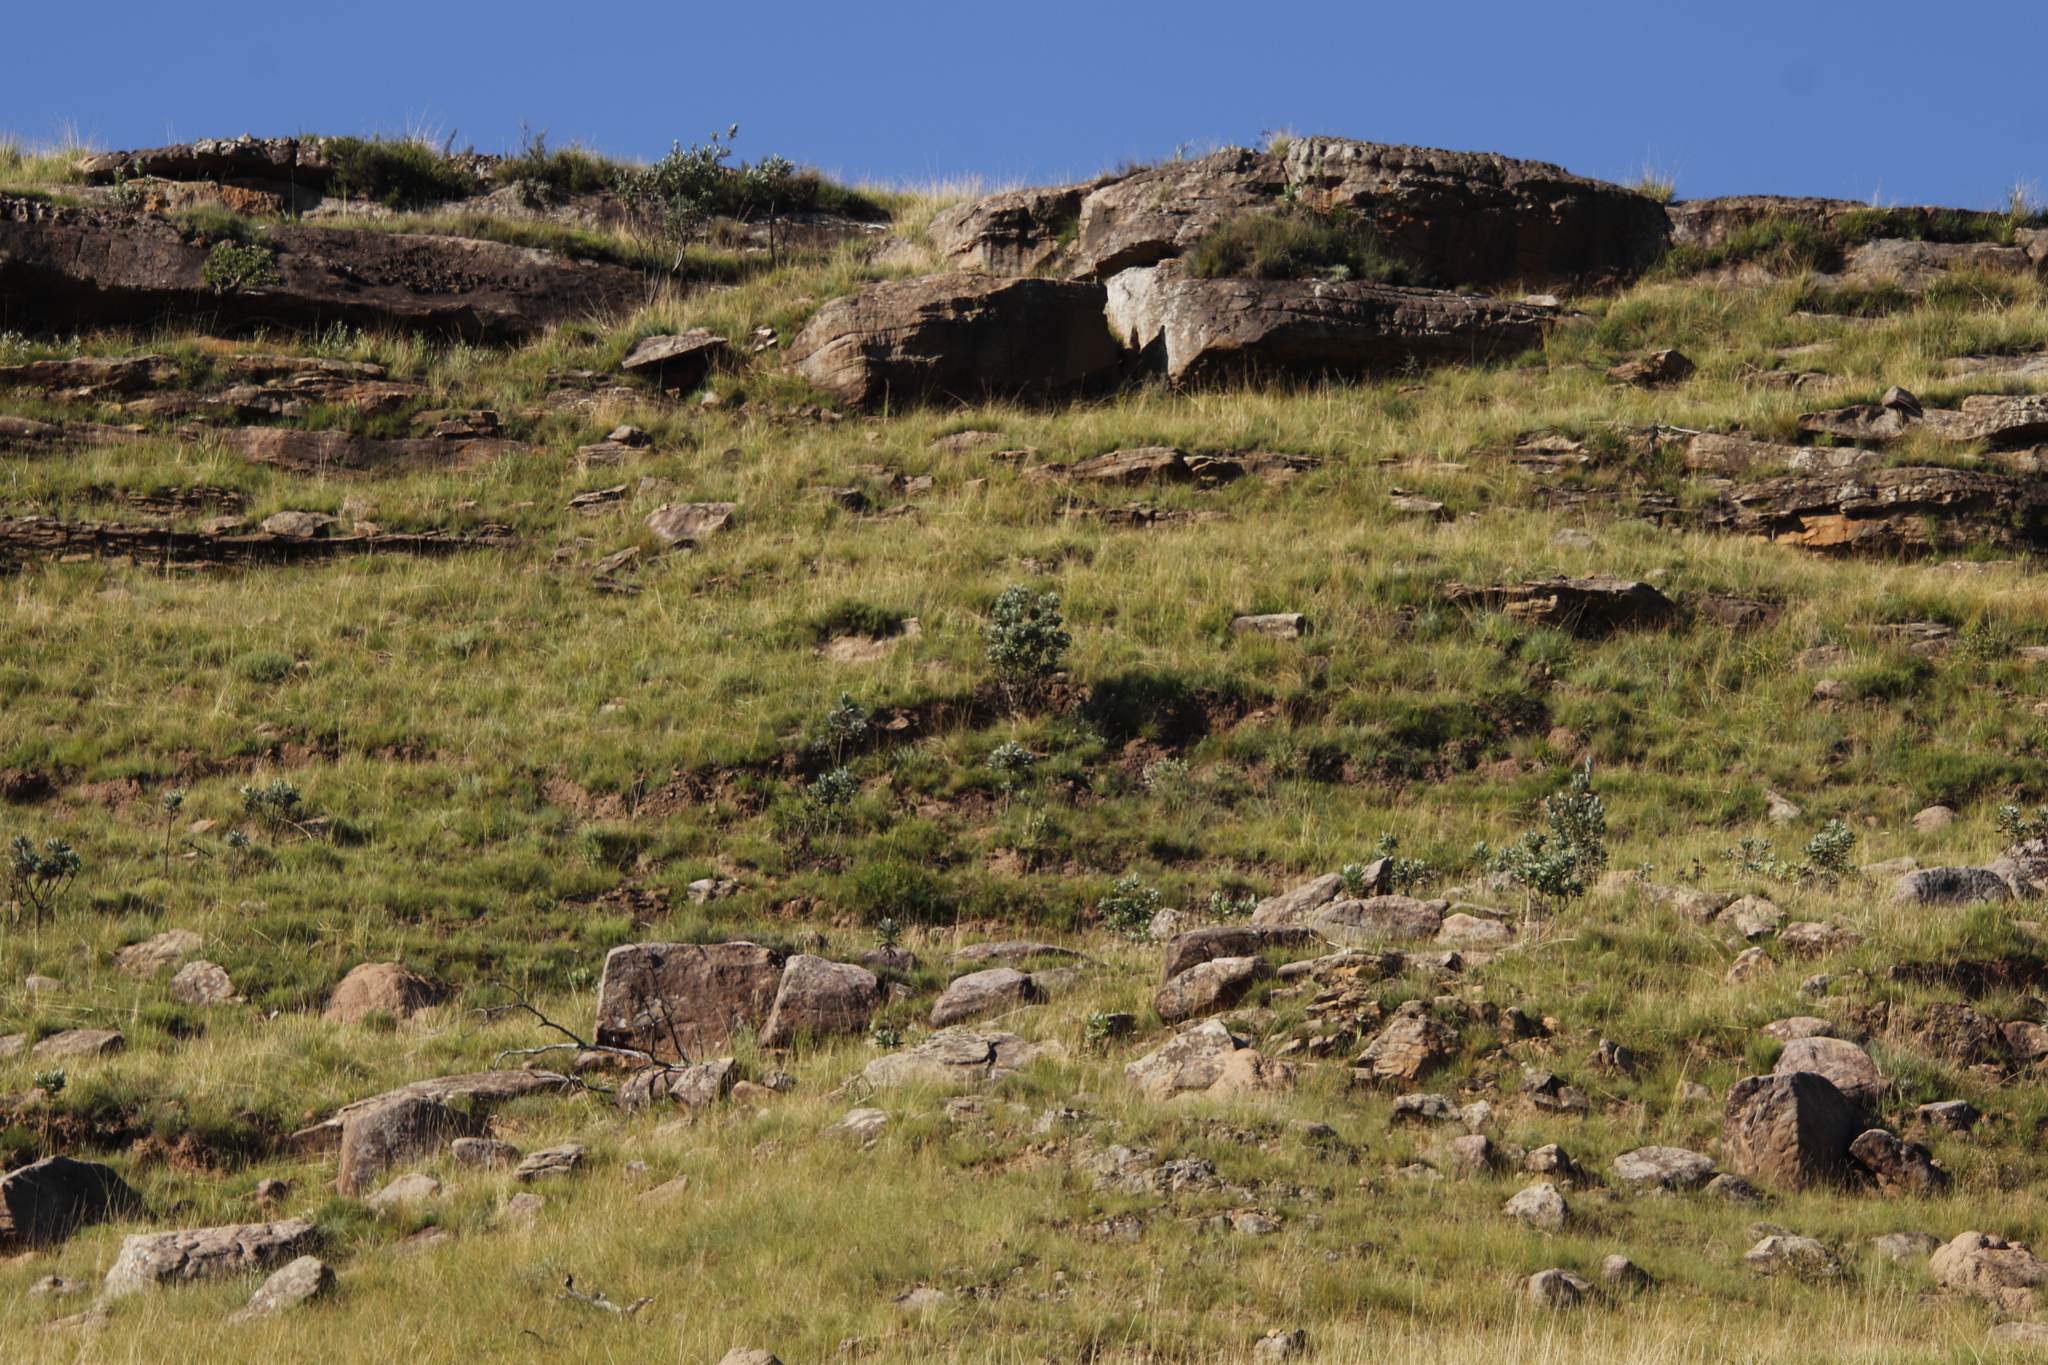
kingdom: Plantae
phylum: Tracheophyta
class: Magnoliopsida
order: Proteales
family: Proteaceae
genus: Protea
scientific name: Protea roupelliae
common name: Silver sugarbush
